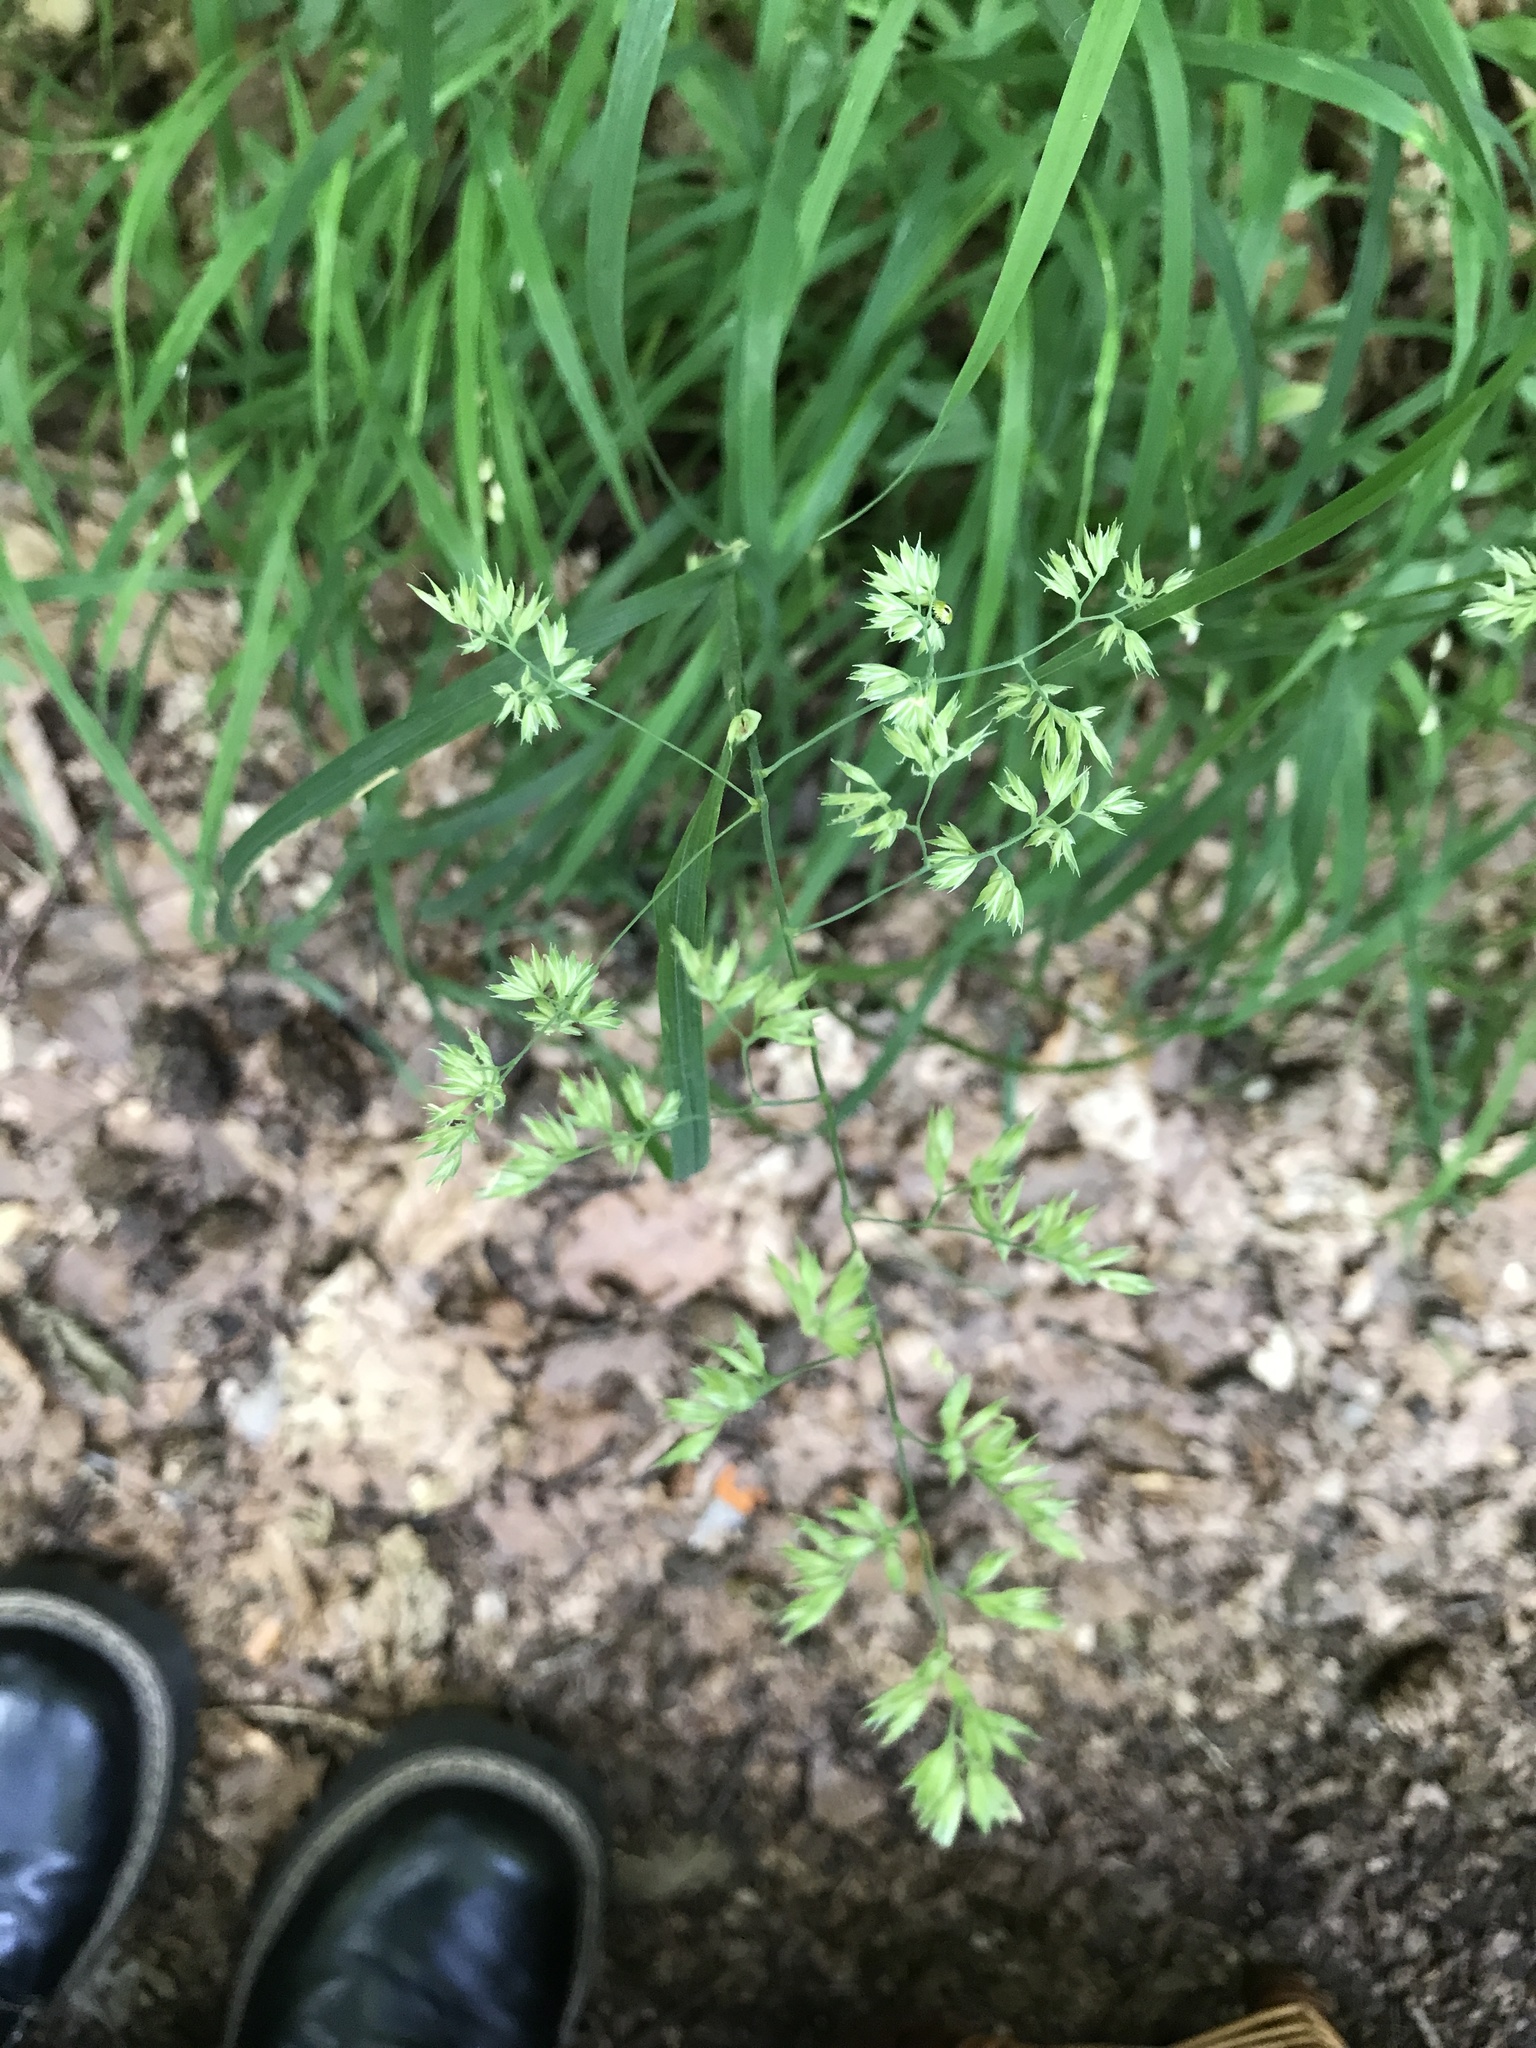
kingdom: Plantae
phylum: Tracheophyta
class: Liliopsida
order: Poales
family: Poaceae
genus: Dactylis
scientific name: Dactylis glomerata
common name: Orchardgrass
